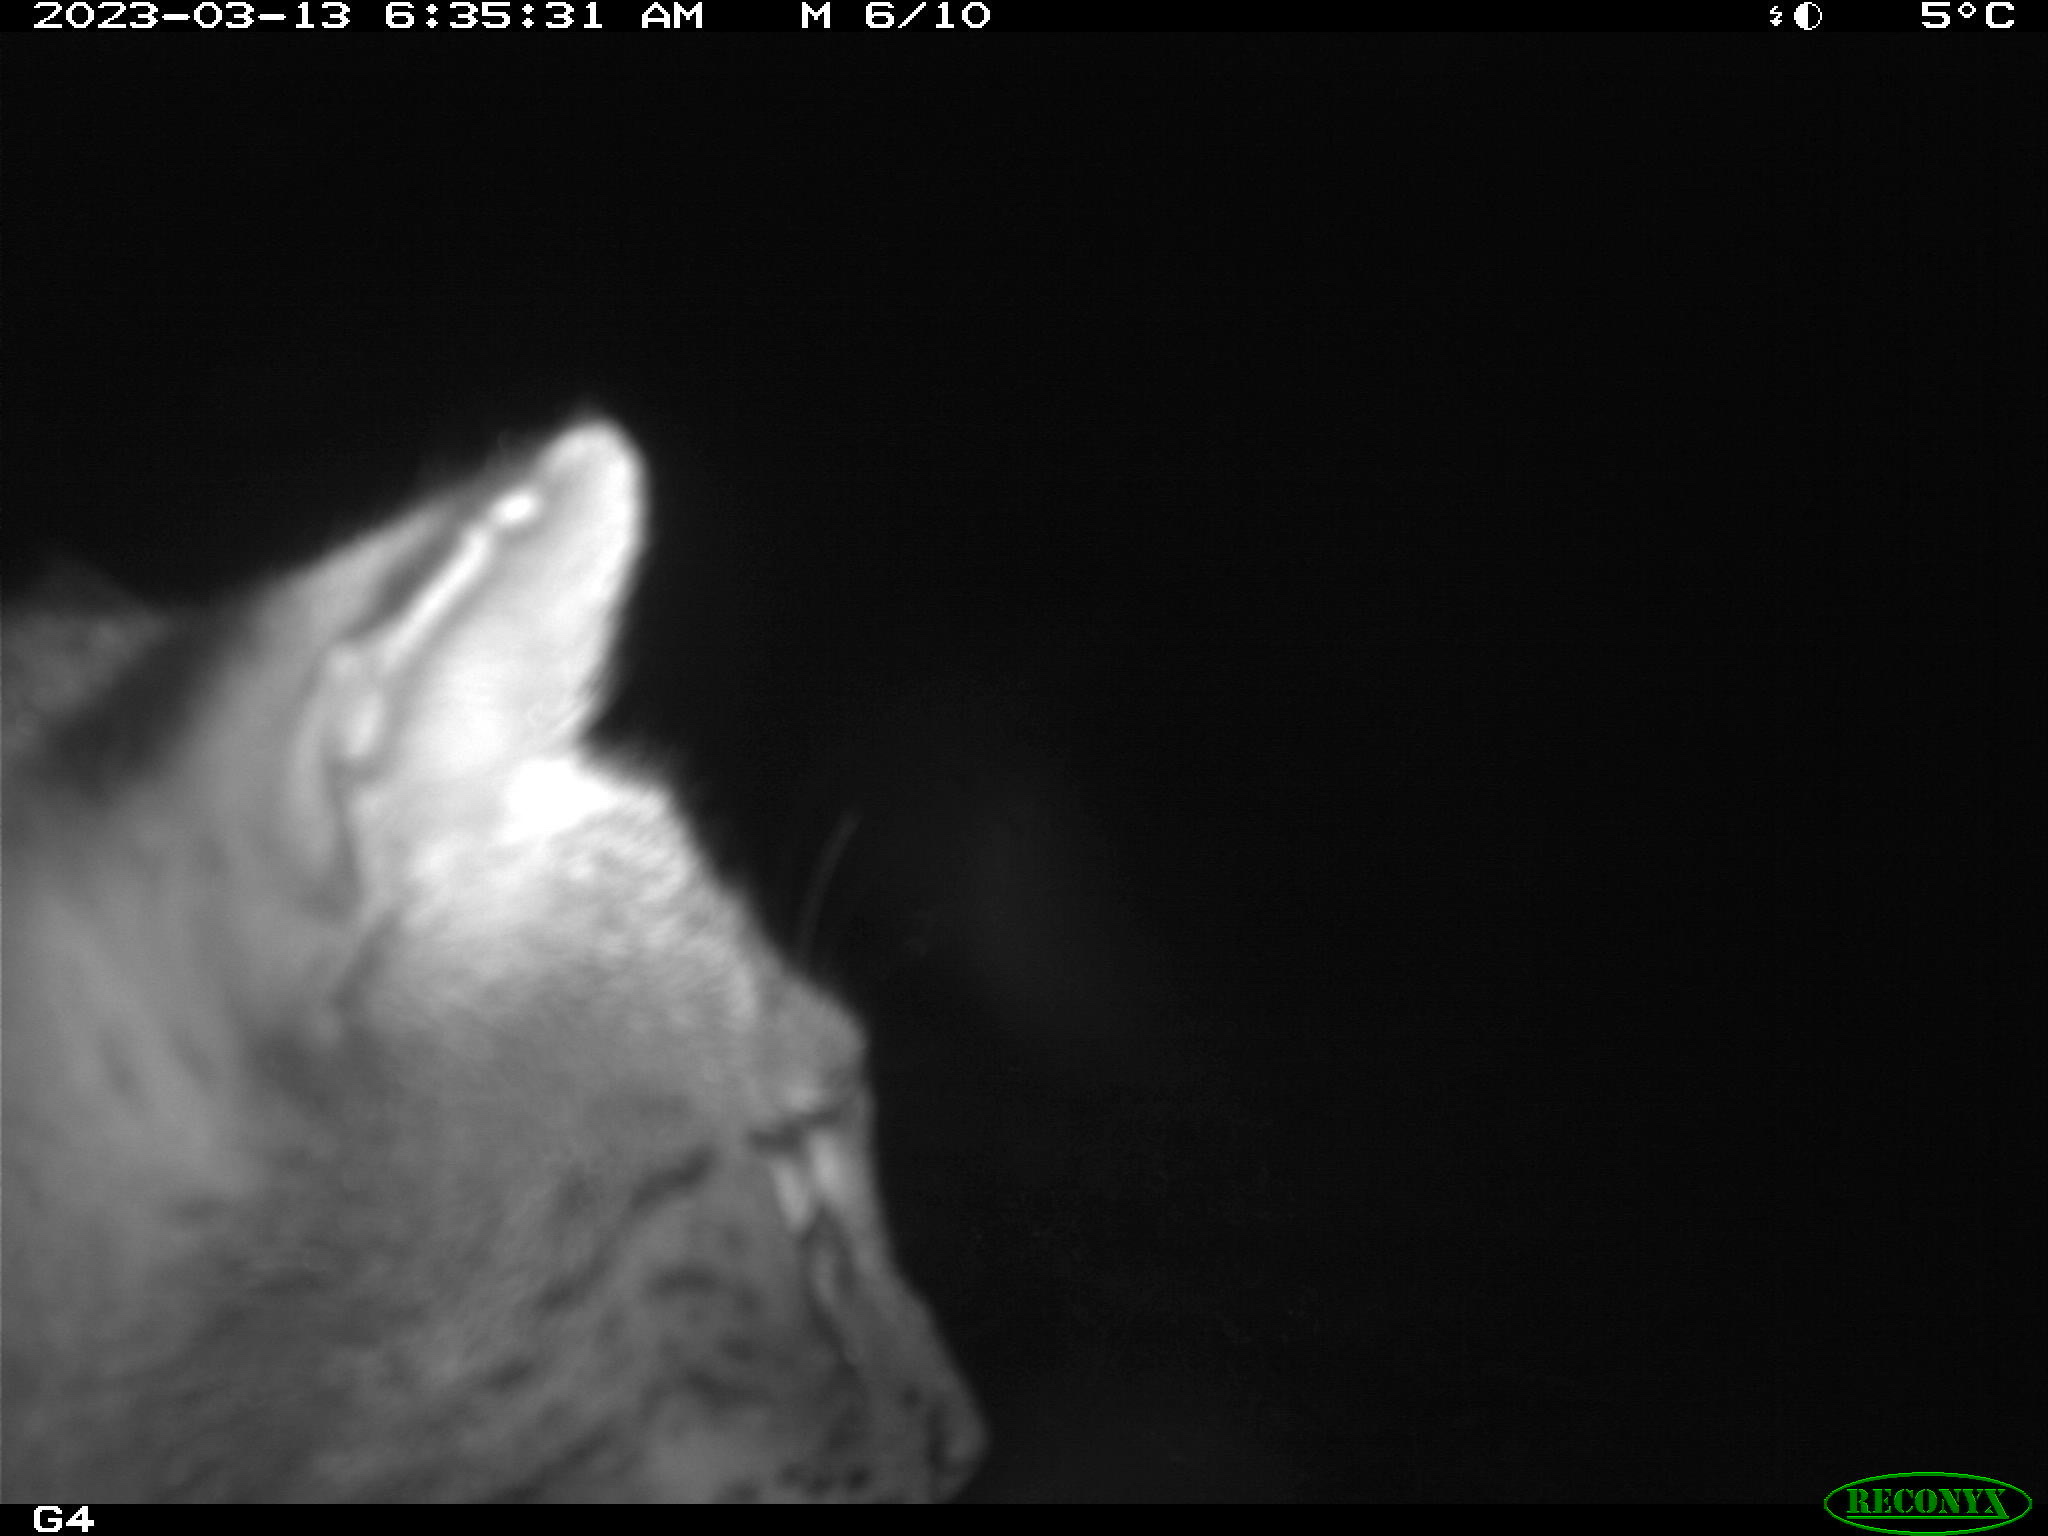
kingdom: Animalia
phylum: Chordata
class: Mammalia
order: Carnivora
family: Felidae
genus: Lynx
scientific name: Lynx rufus
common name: Bobcat
